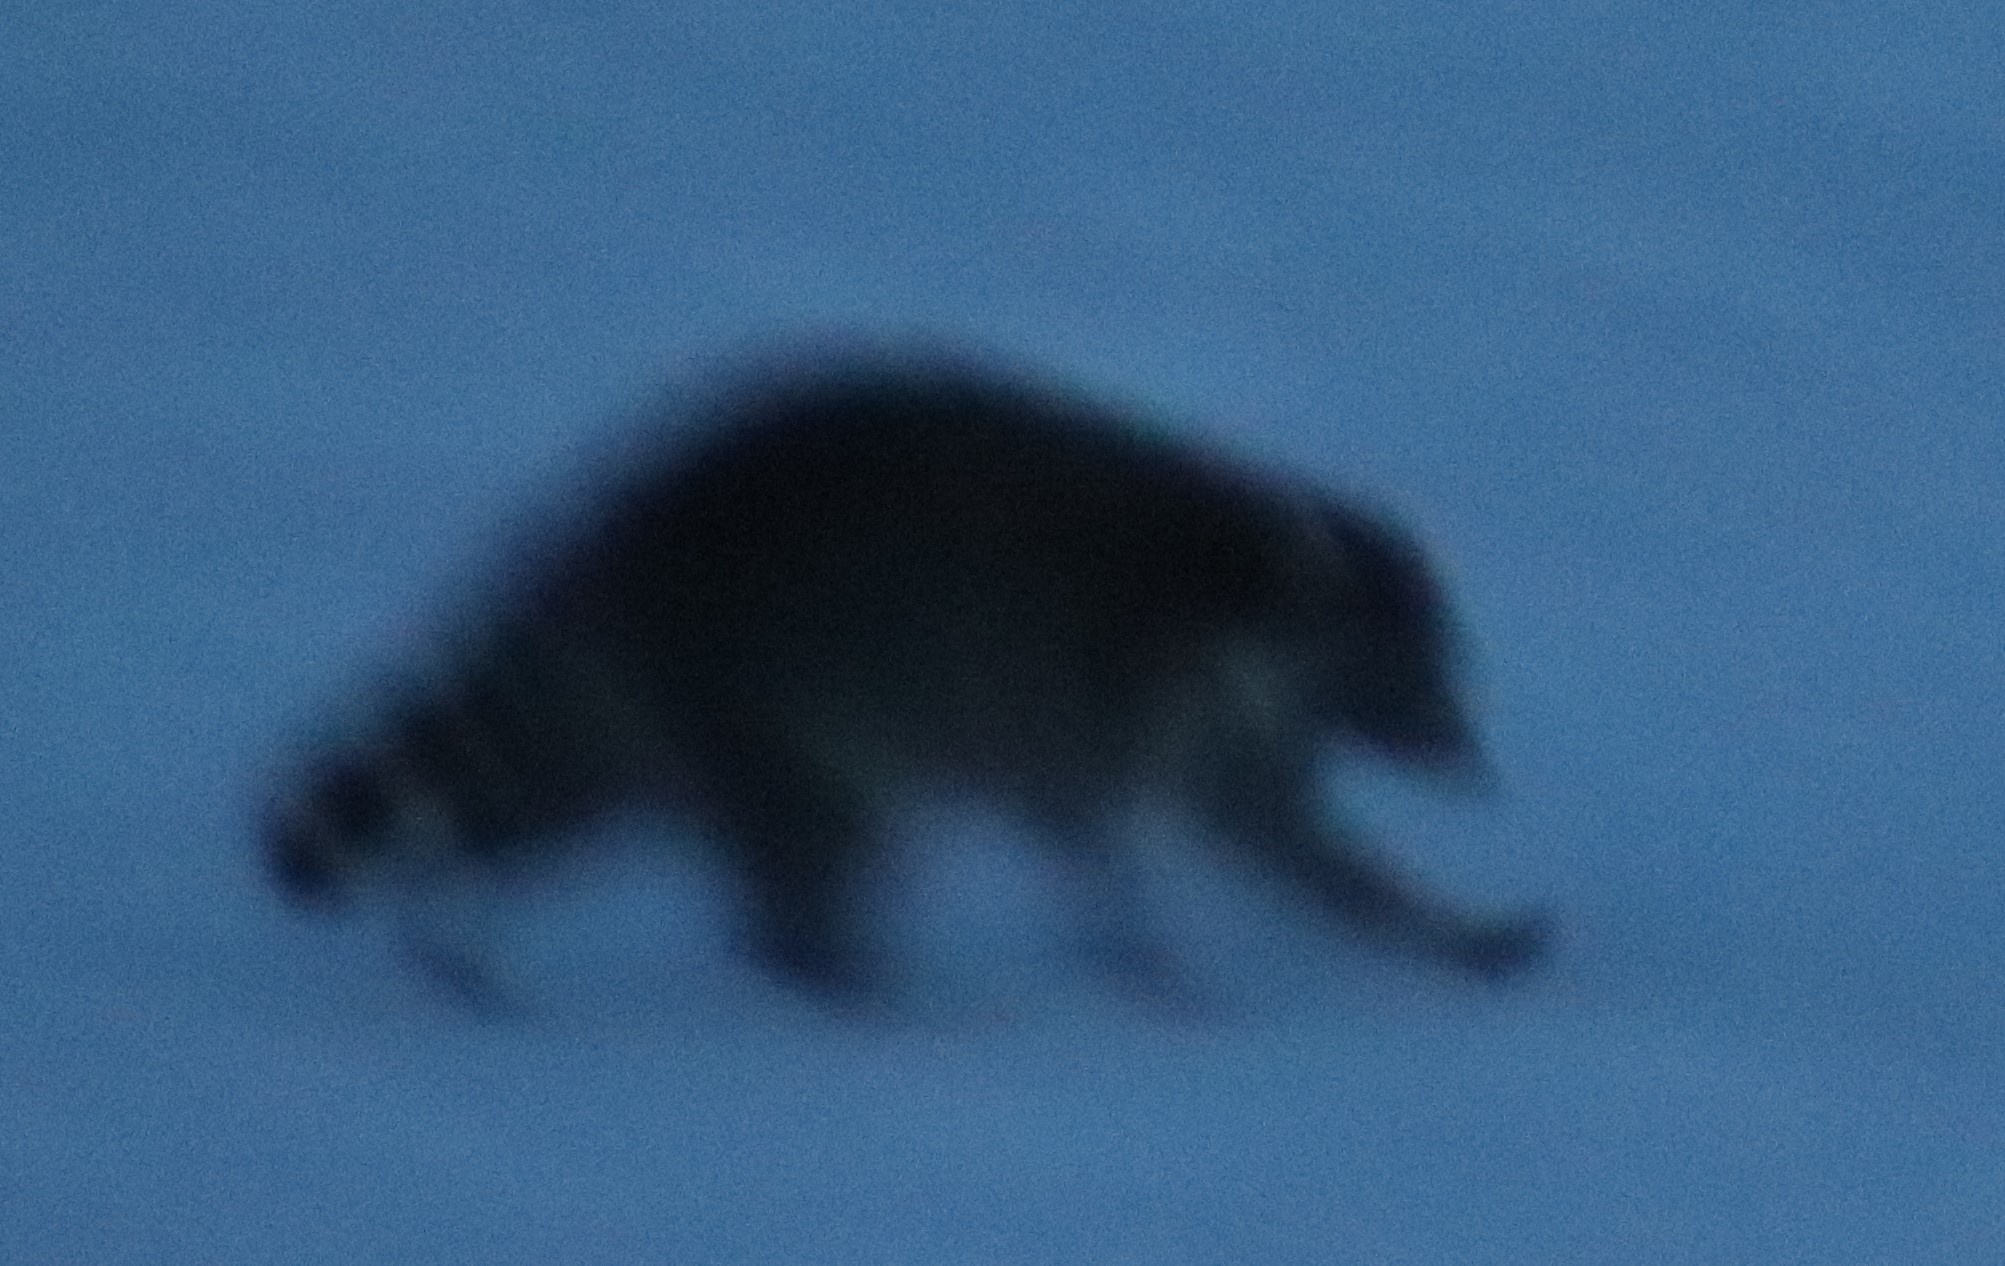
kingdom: Animalia
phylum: Chordata
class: Mammalia
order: Carnivora
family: Procyonidae
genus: Procyon
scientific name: Procyon lotor
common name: Raccoon
